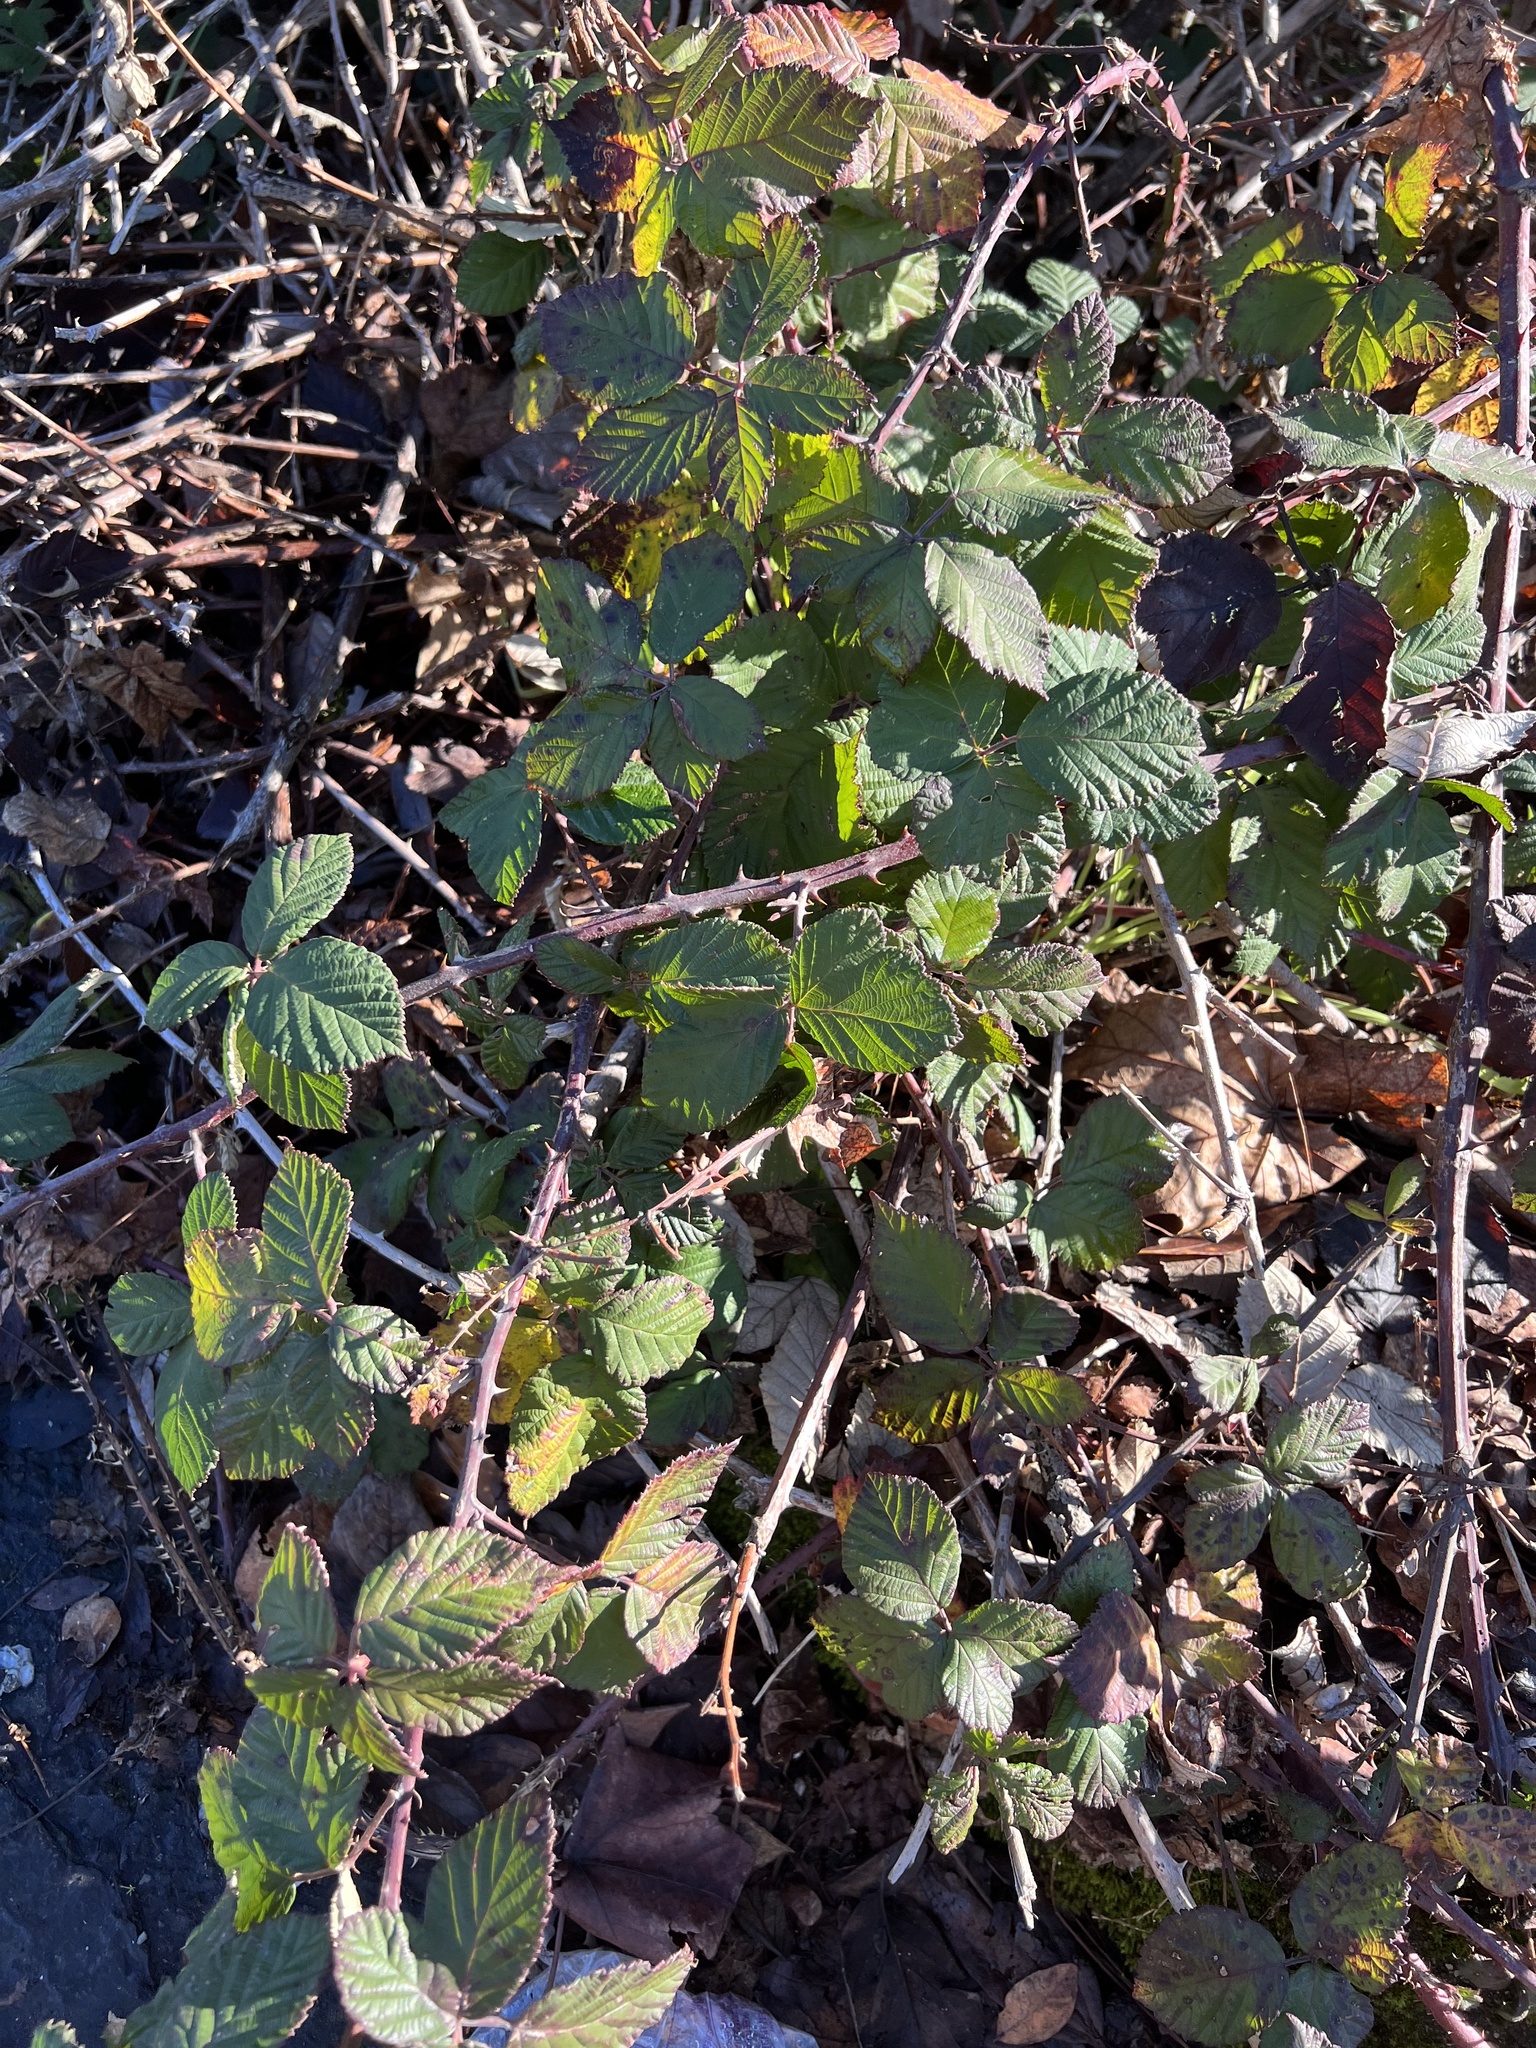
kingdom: Plantae
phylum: Tracheophyta
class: Magnoliopsida
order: Rosales
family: Rosaceae
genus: Rubus
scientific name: Rubus bifrons
